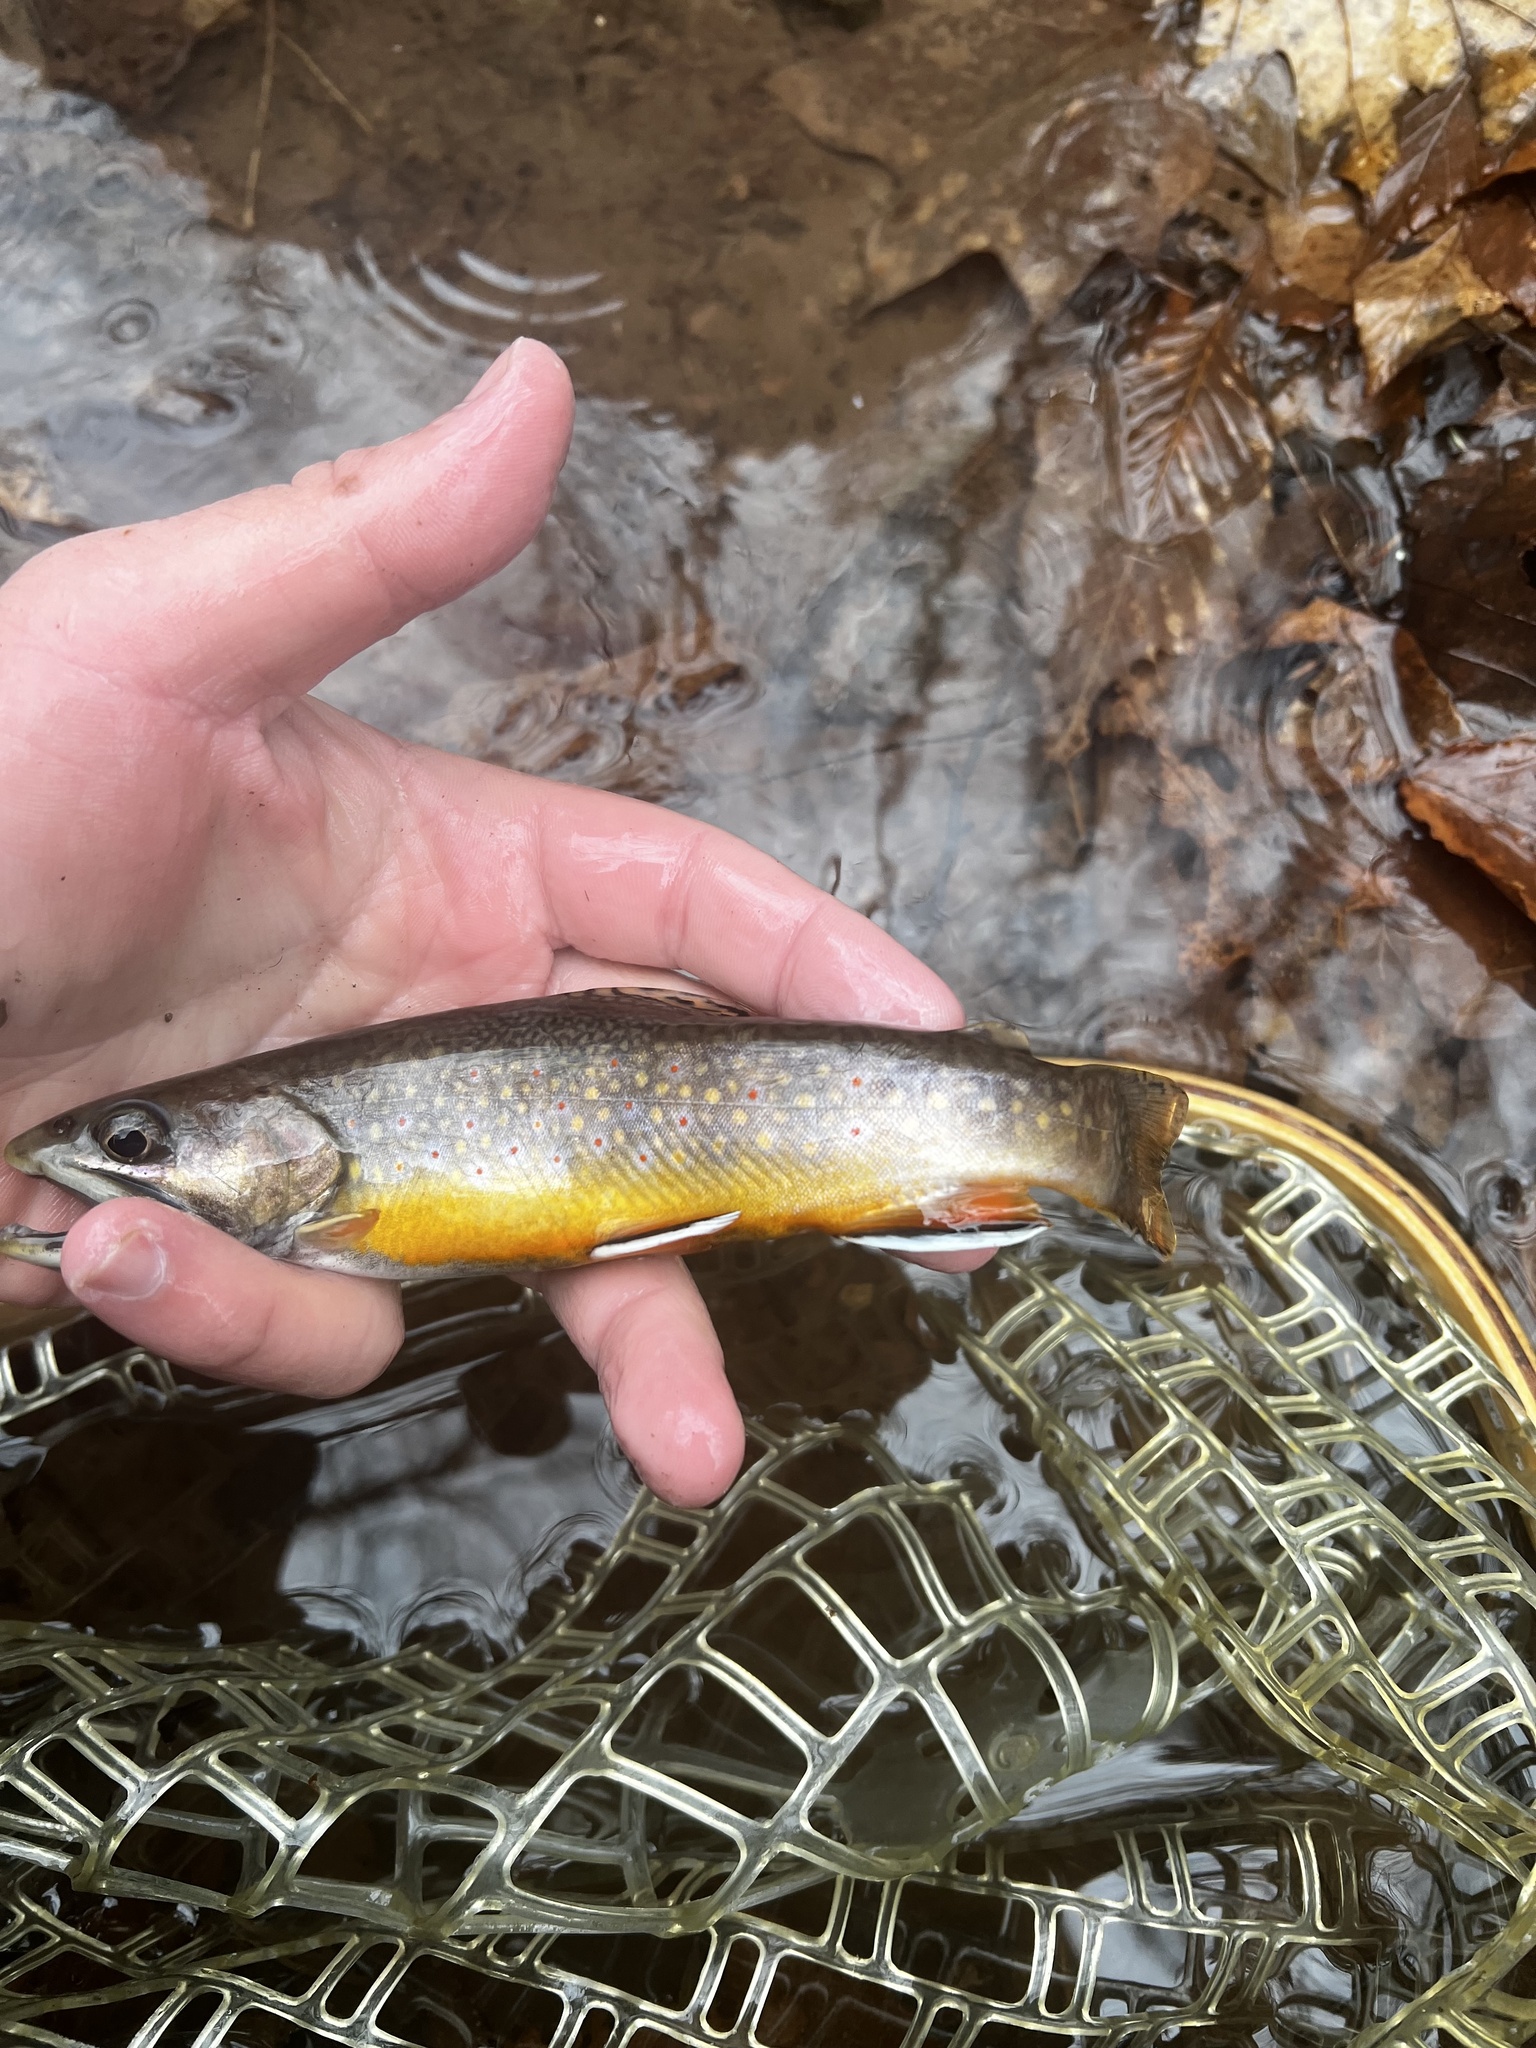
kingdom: Animalia
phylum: Chordata
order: Salmoniformes
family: Salmonidae
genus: Salvelinus
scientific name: Salvelinus fontinalis
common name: Brook trout
